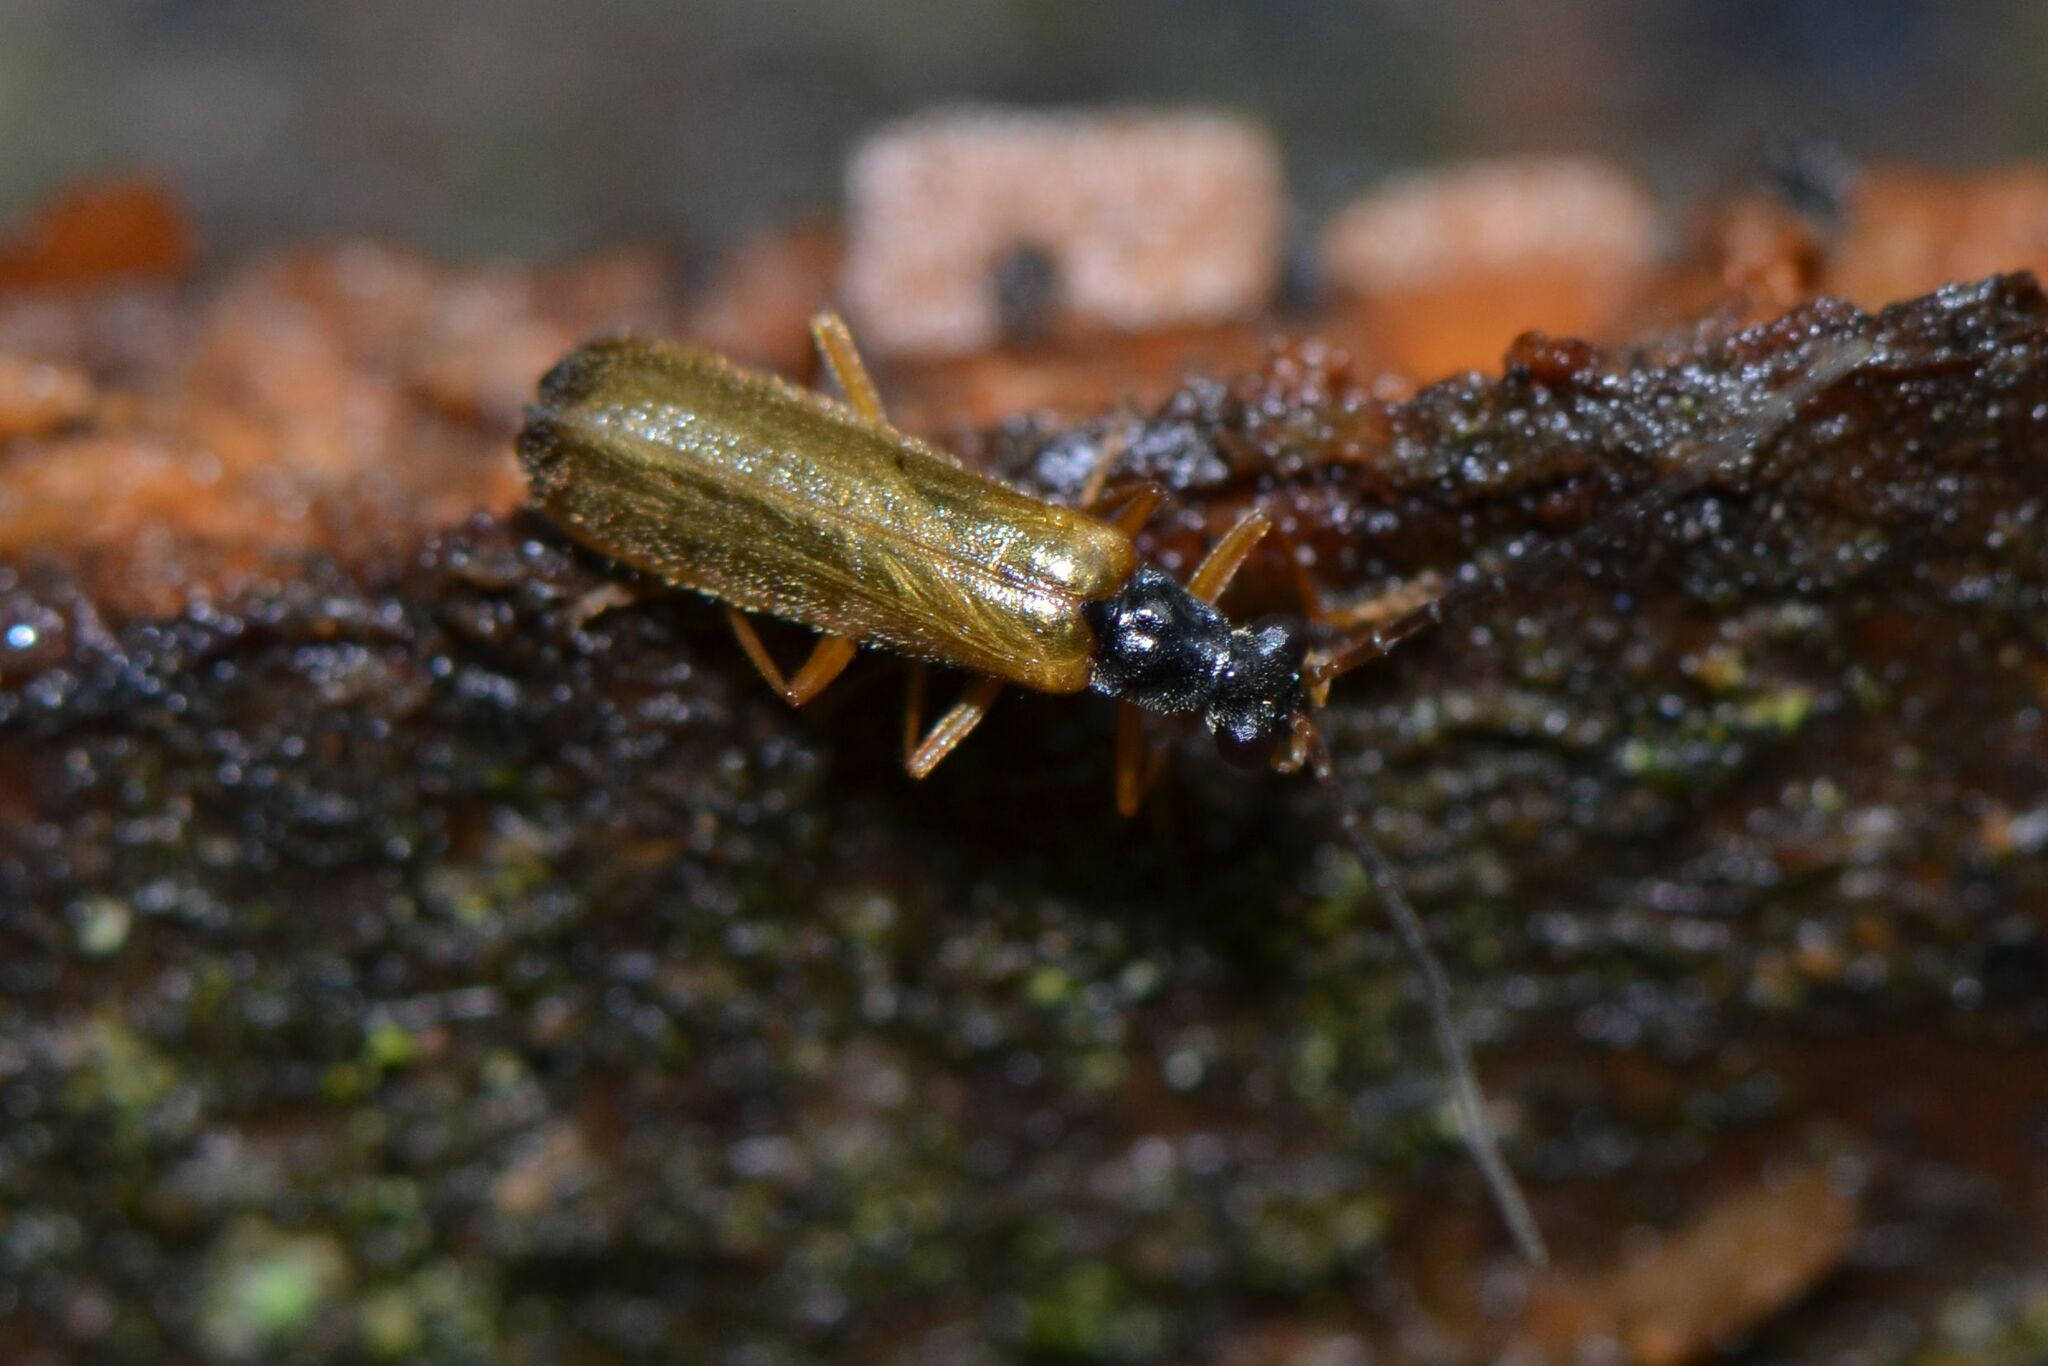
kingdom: Animalia
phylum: Arthropoda
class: Insecta
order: Coleoptera
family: Cantharidae
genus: Rhagonycha
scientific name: Rhagonycha lignosa
